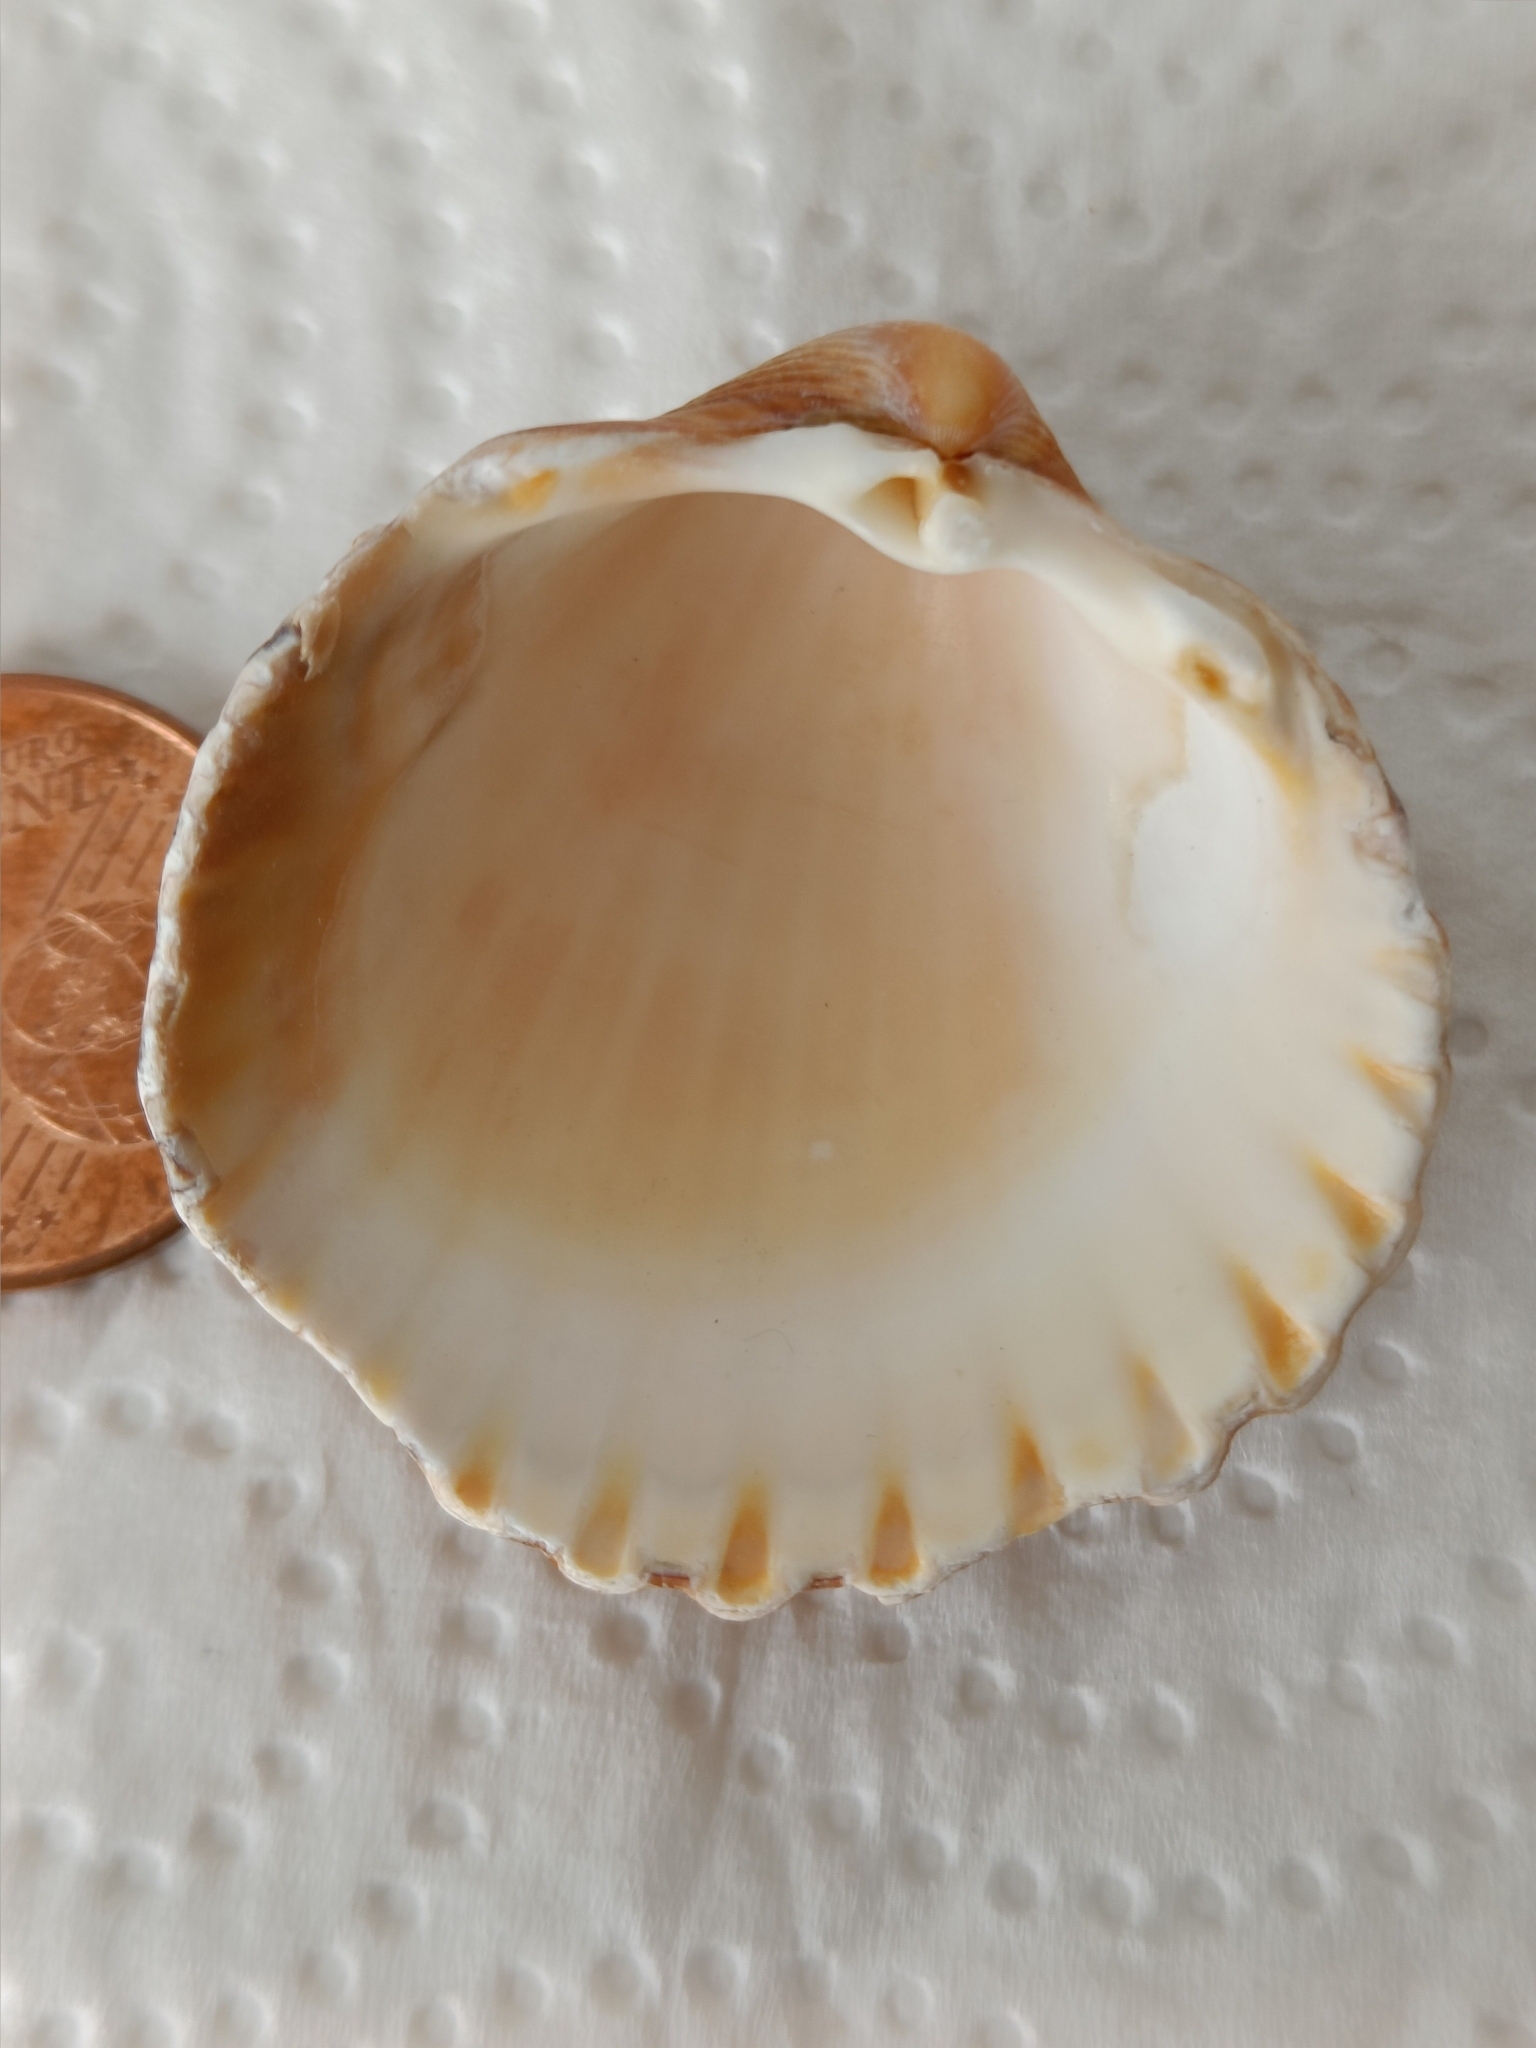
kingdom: Animalia
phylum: Mollusca
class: Bivalvia
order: Cardiida
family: Cardiidae
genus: Acanthocardia
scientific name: Acanthocardia tuberculata
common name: Rough cockle
